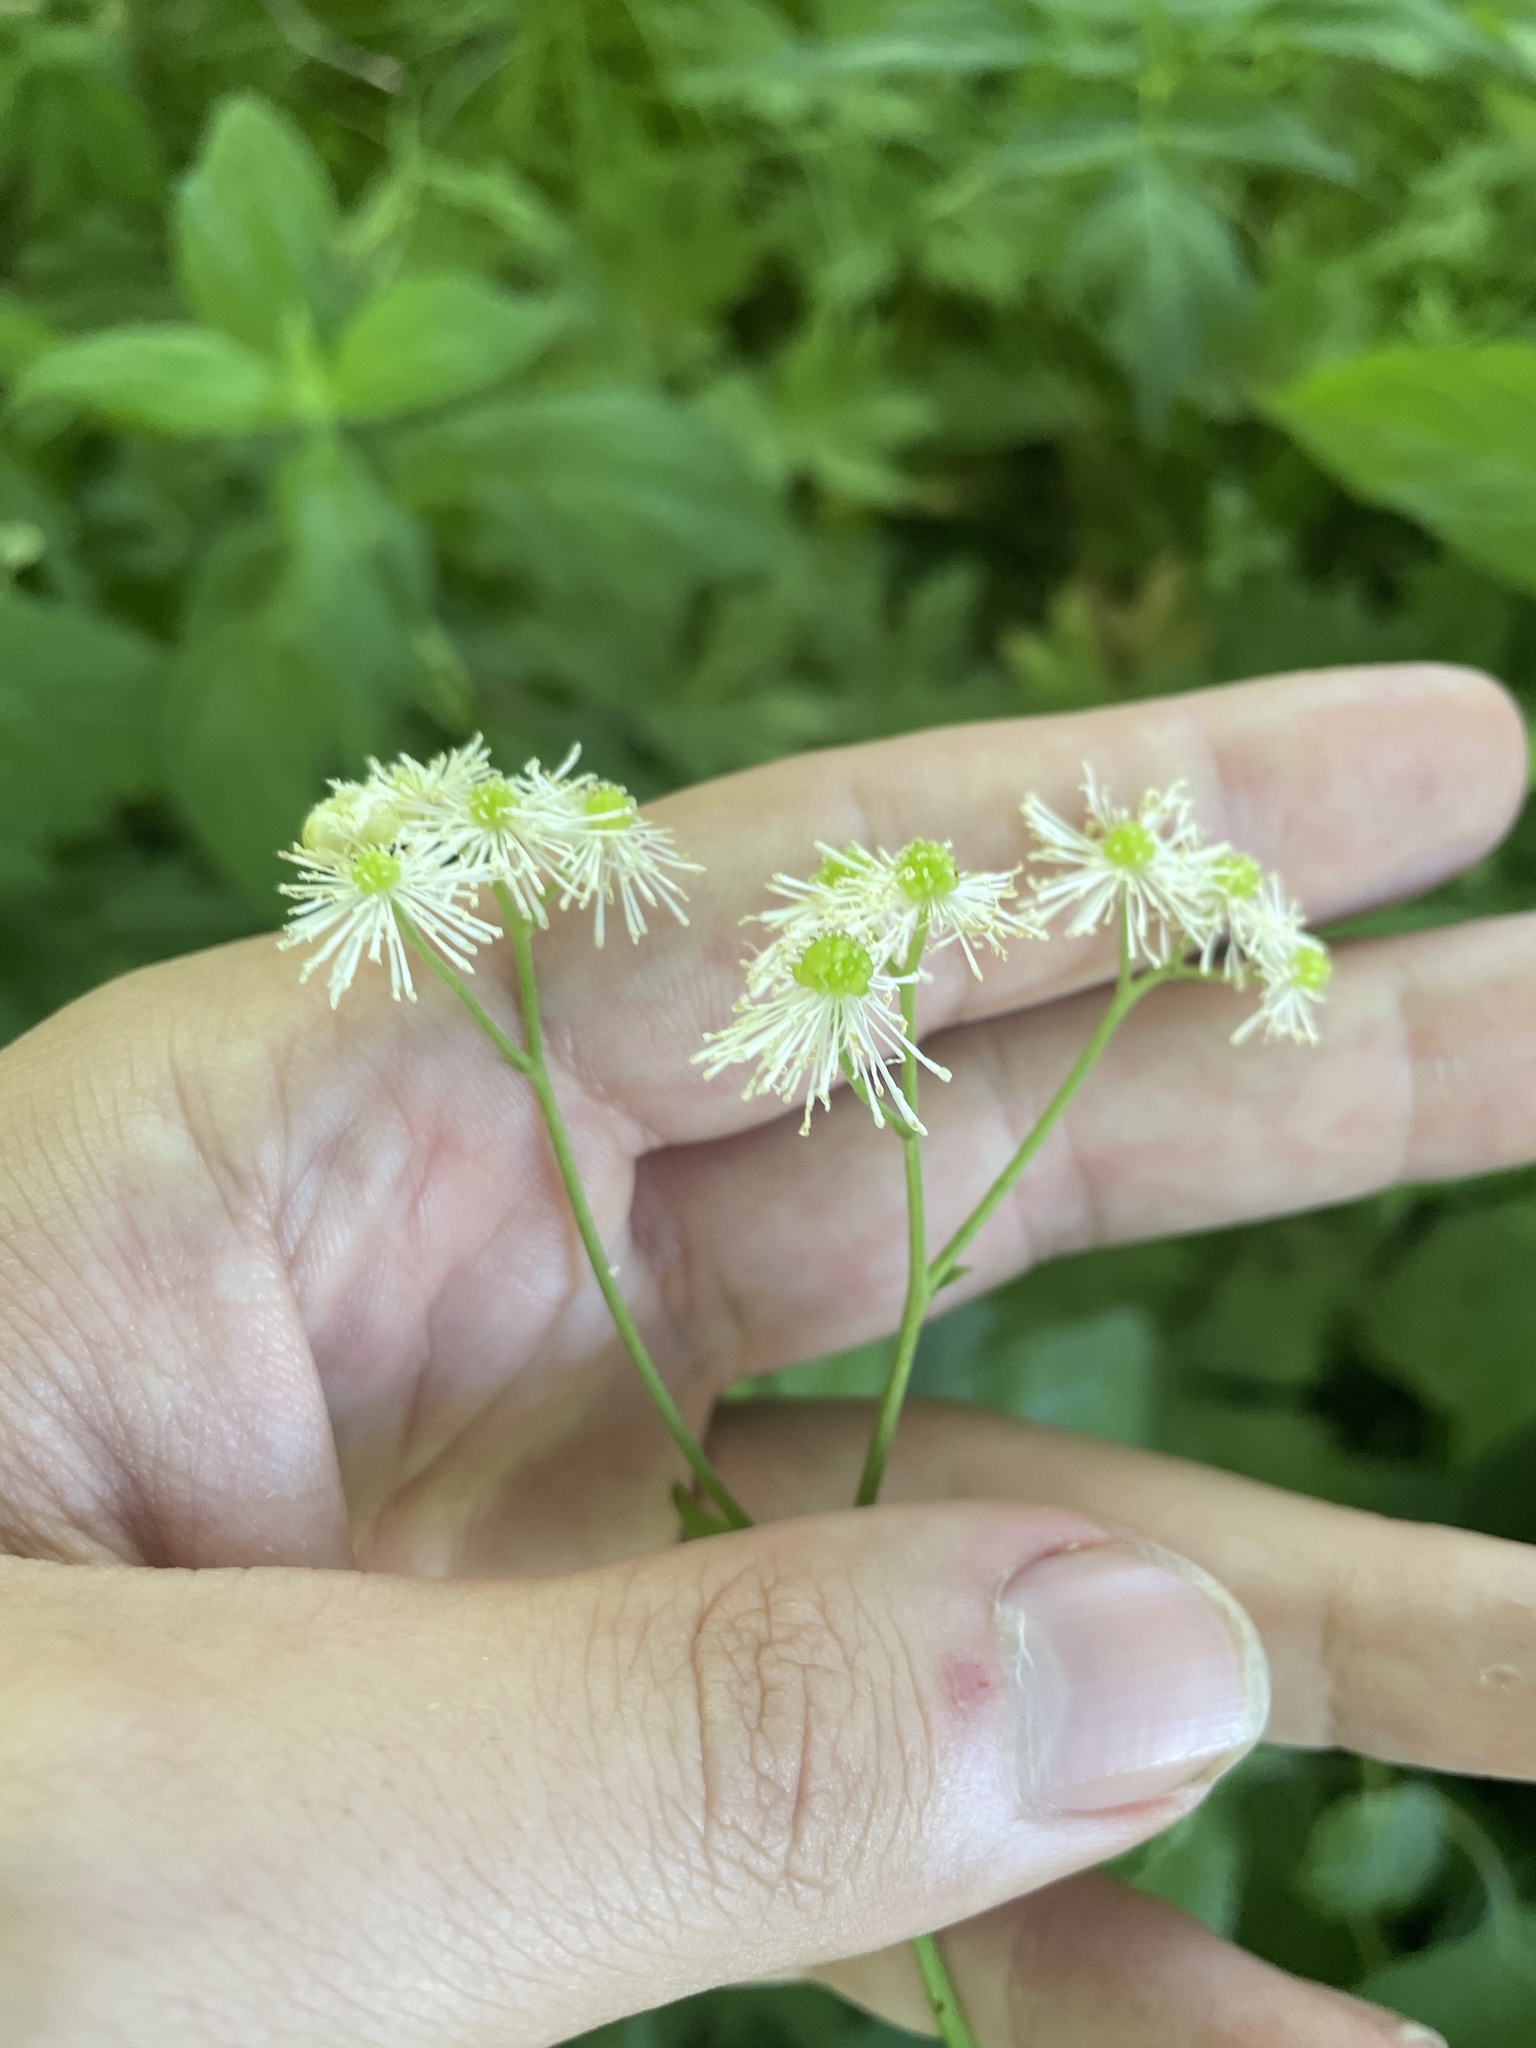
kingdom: Plantae
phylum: Tracheophyta
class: Magnoliopsida
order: Ranunculales
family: Ranunculaceae
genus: Trautvetteria
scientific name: Trautvetteria carolinensis
